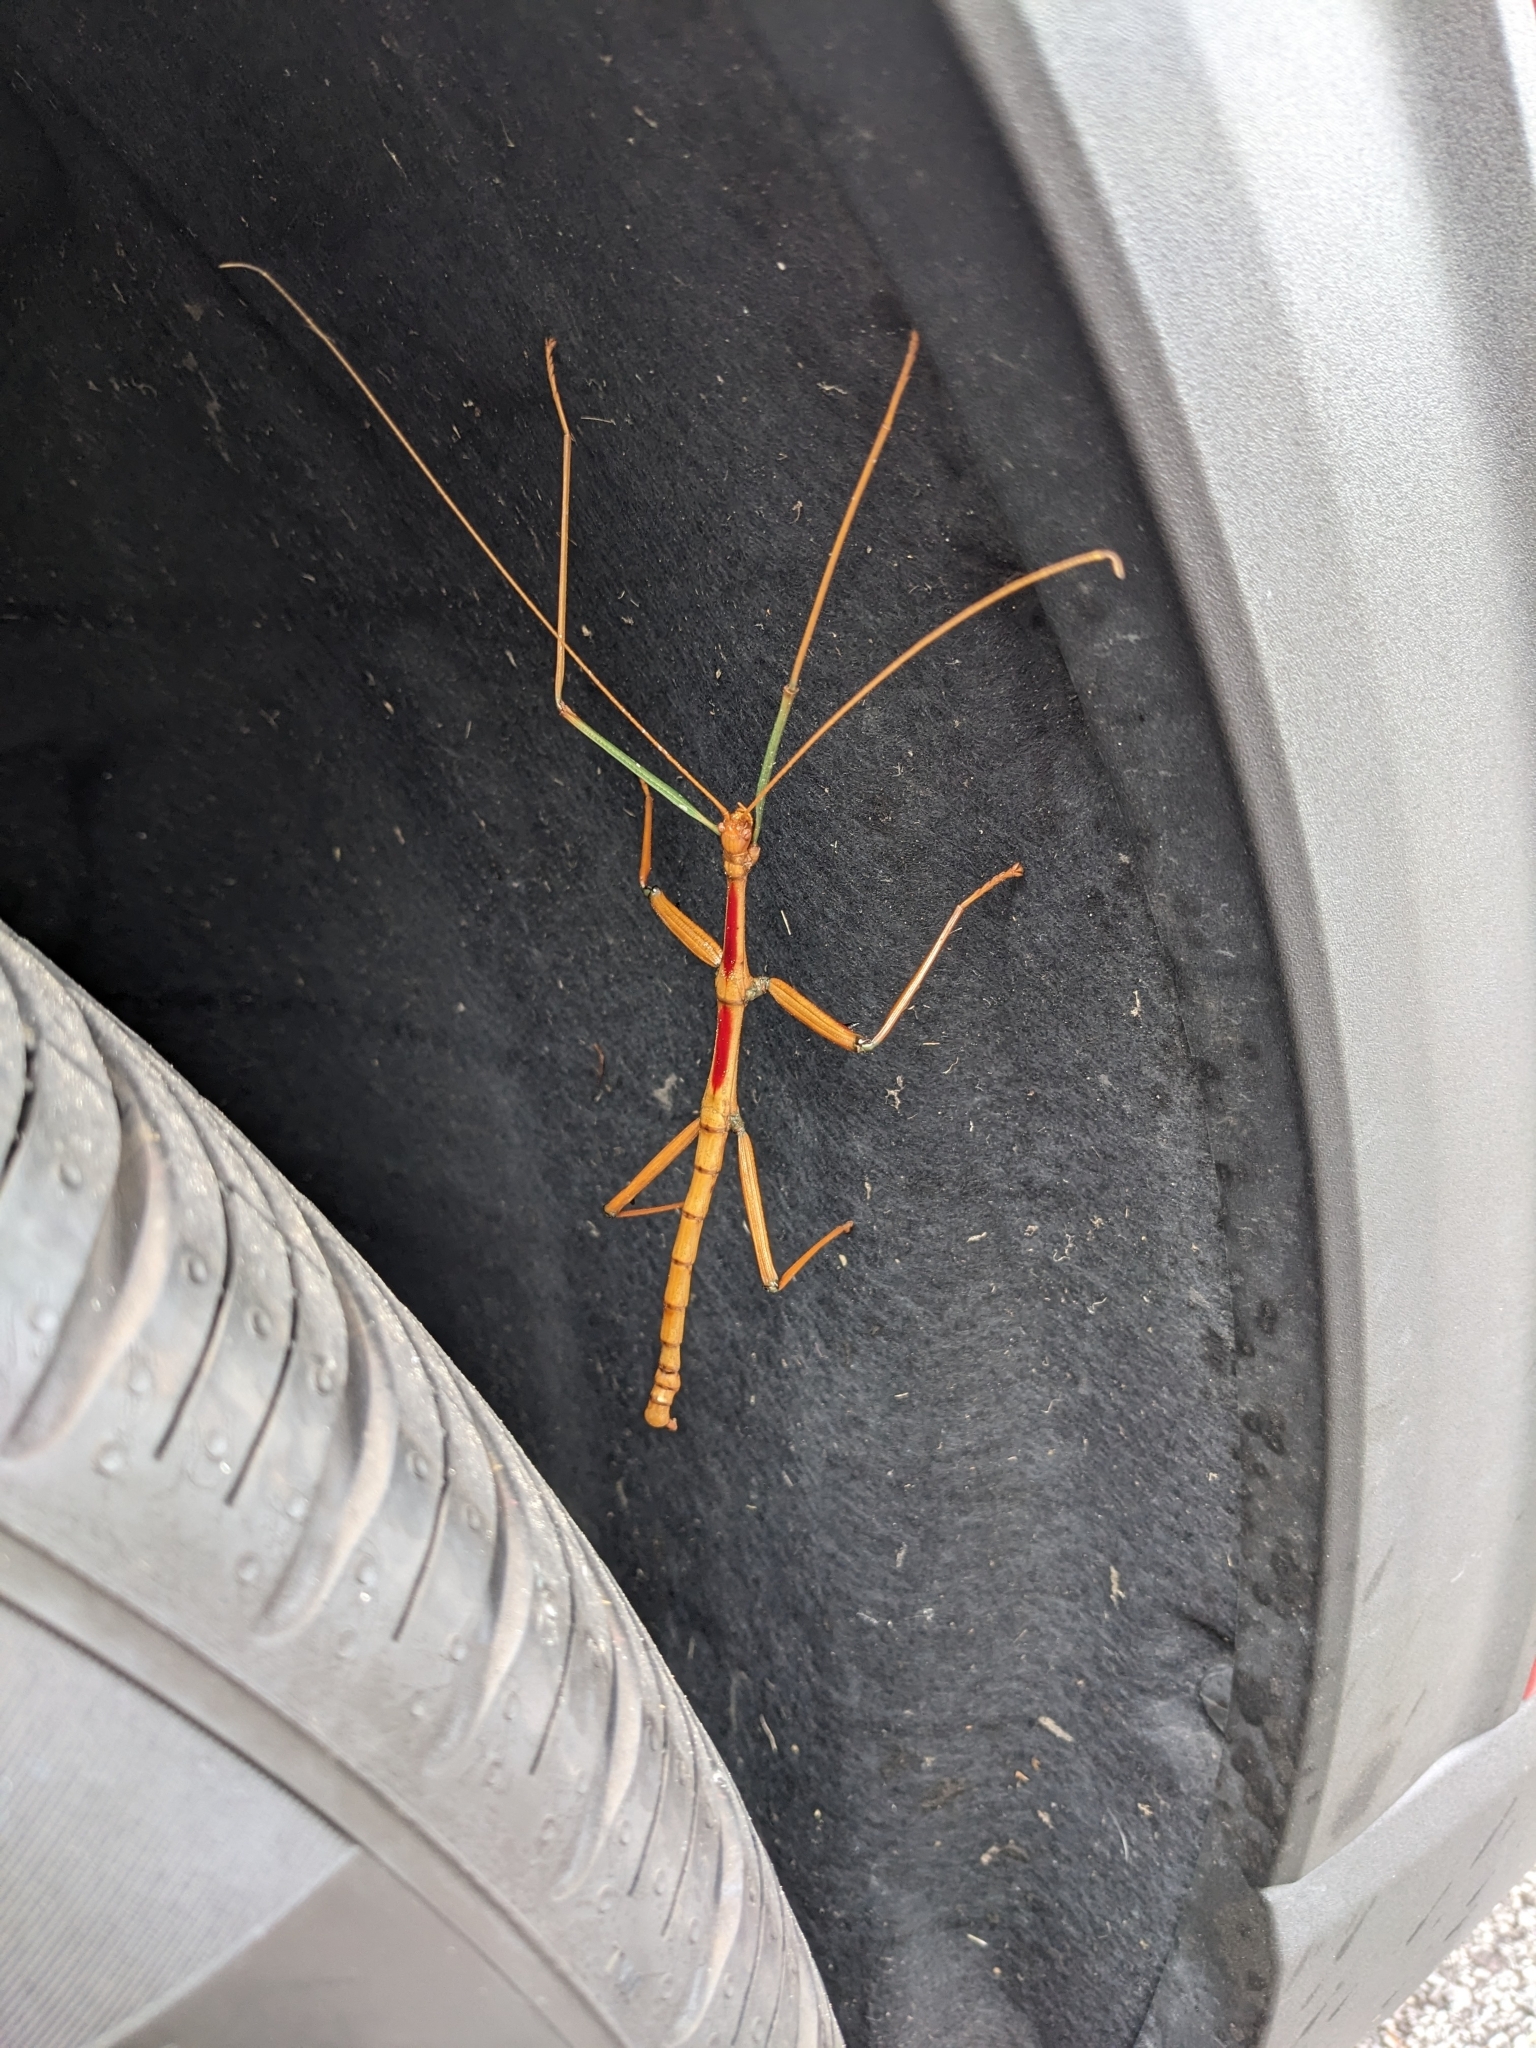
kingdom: Animalia
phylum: Arthropoda
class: Insecta
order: Phasmida
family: Diapheromeridae
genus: Megaphasma
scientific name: Megaphasma denticrus
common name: Giant walkingstick
